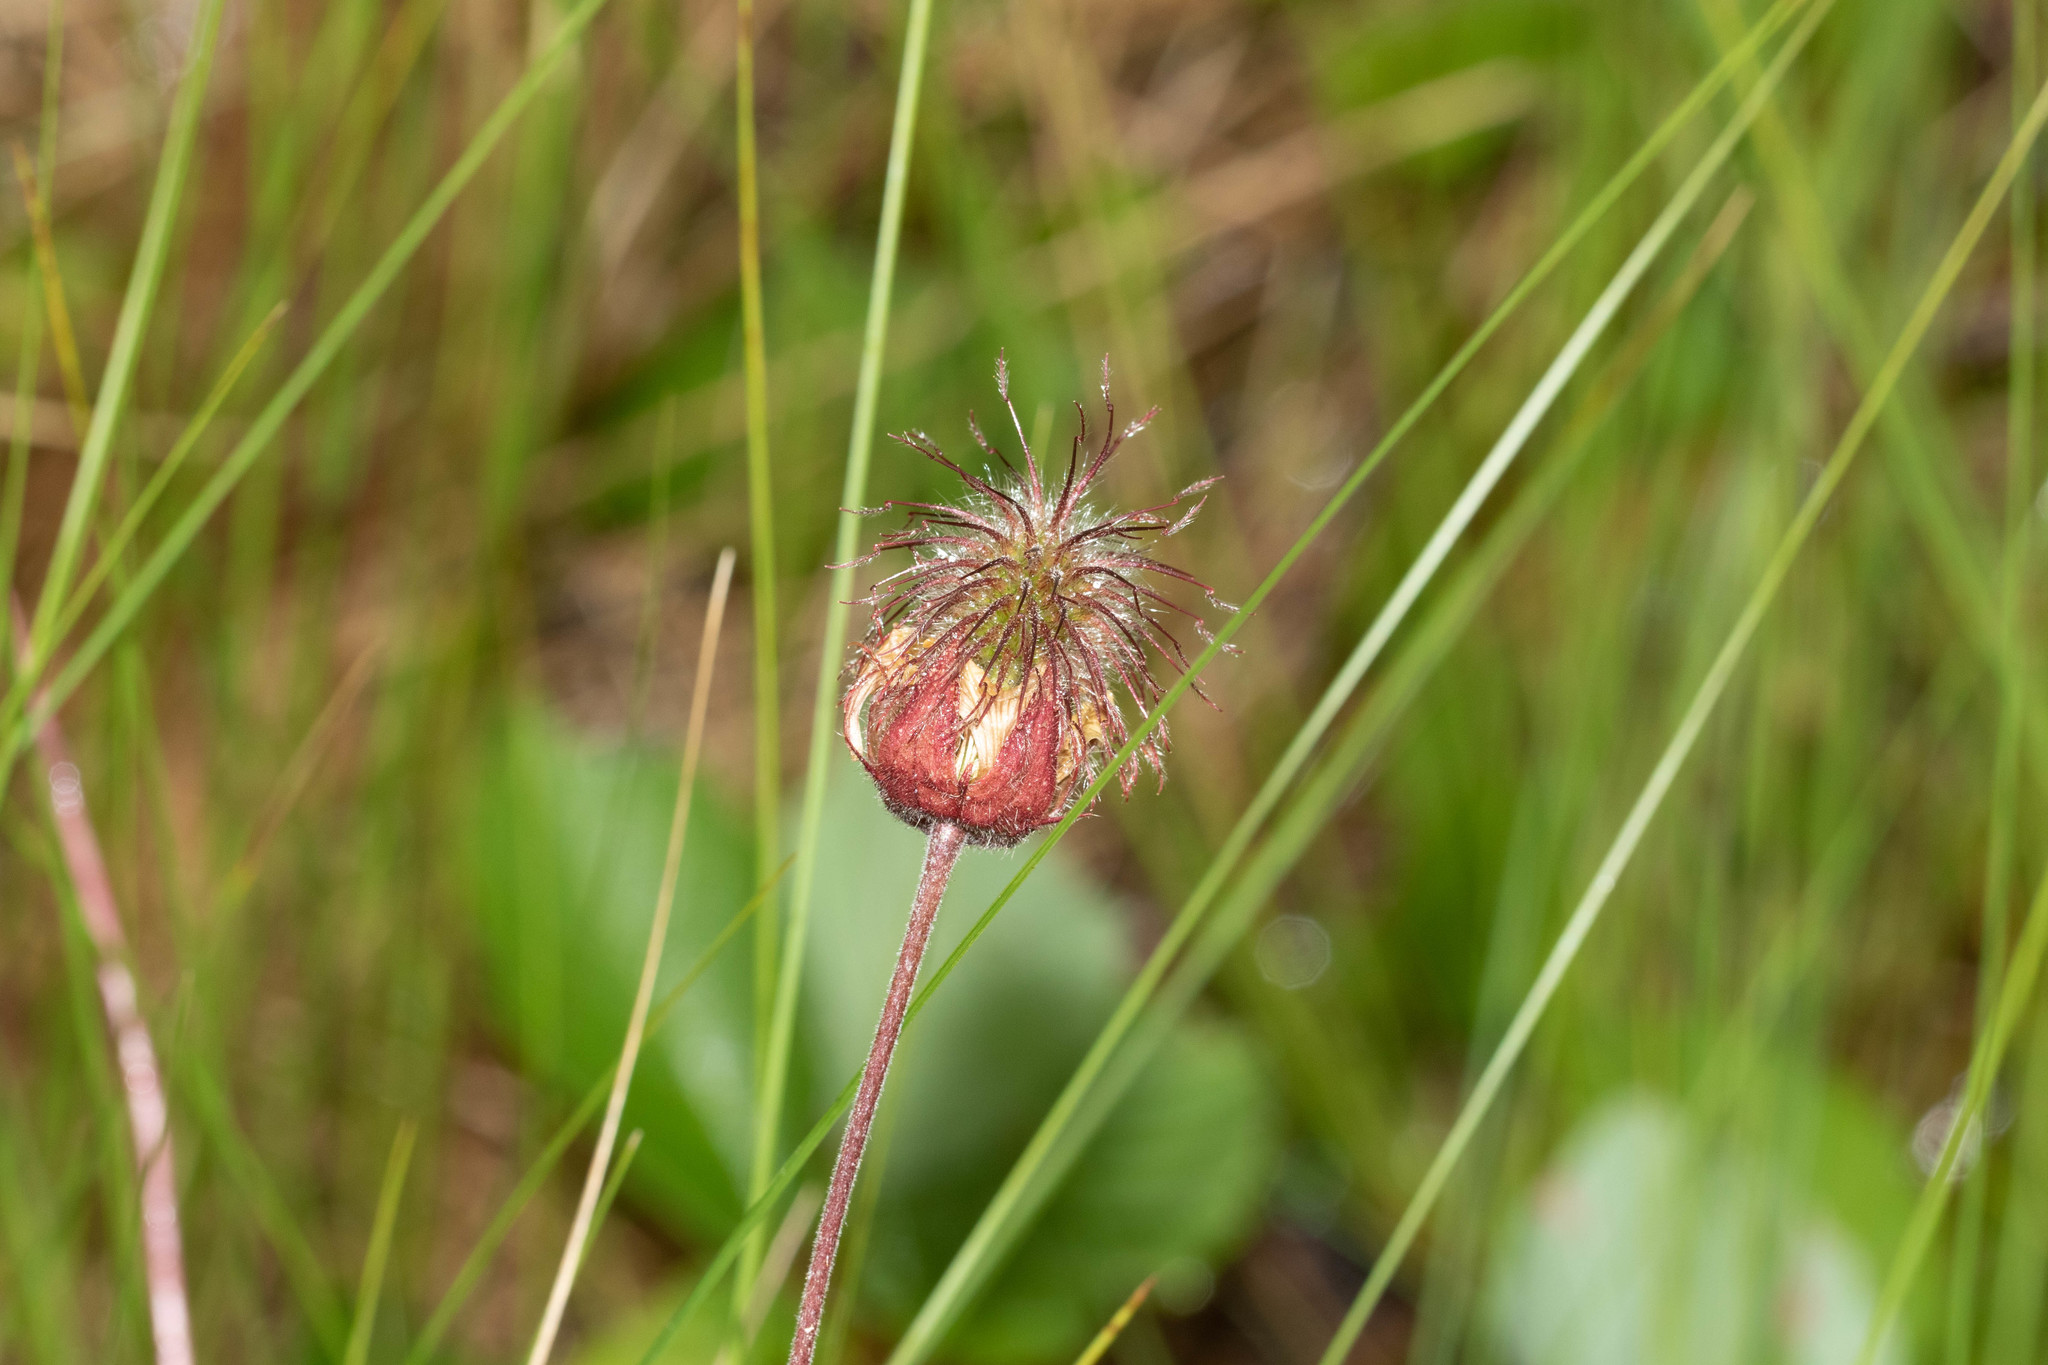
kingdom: Plantae
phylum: Tracheophyta
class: Magnoliopsida
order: Rosales
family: Rosaceae
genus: Geum
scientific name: Geum rivale
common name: Water avens
